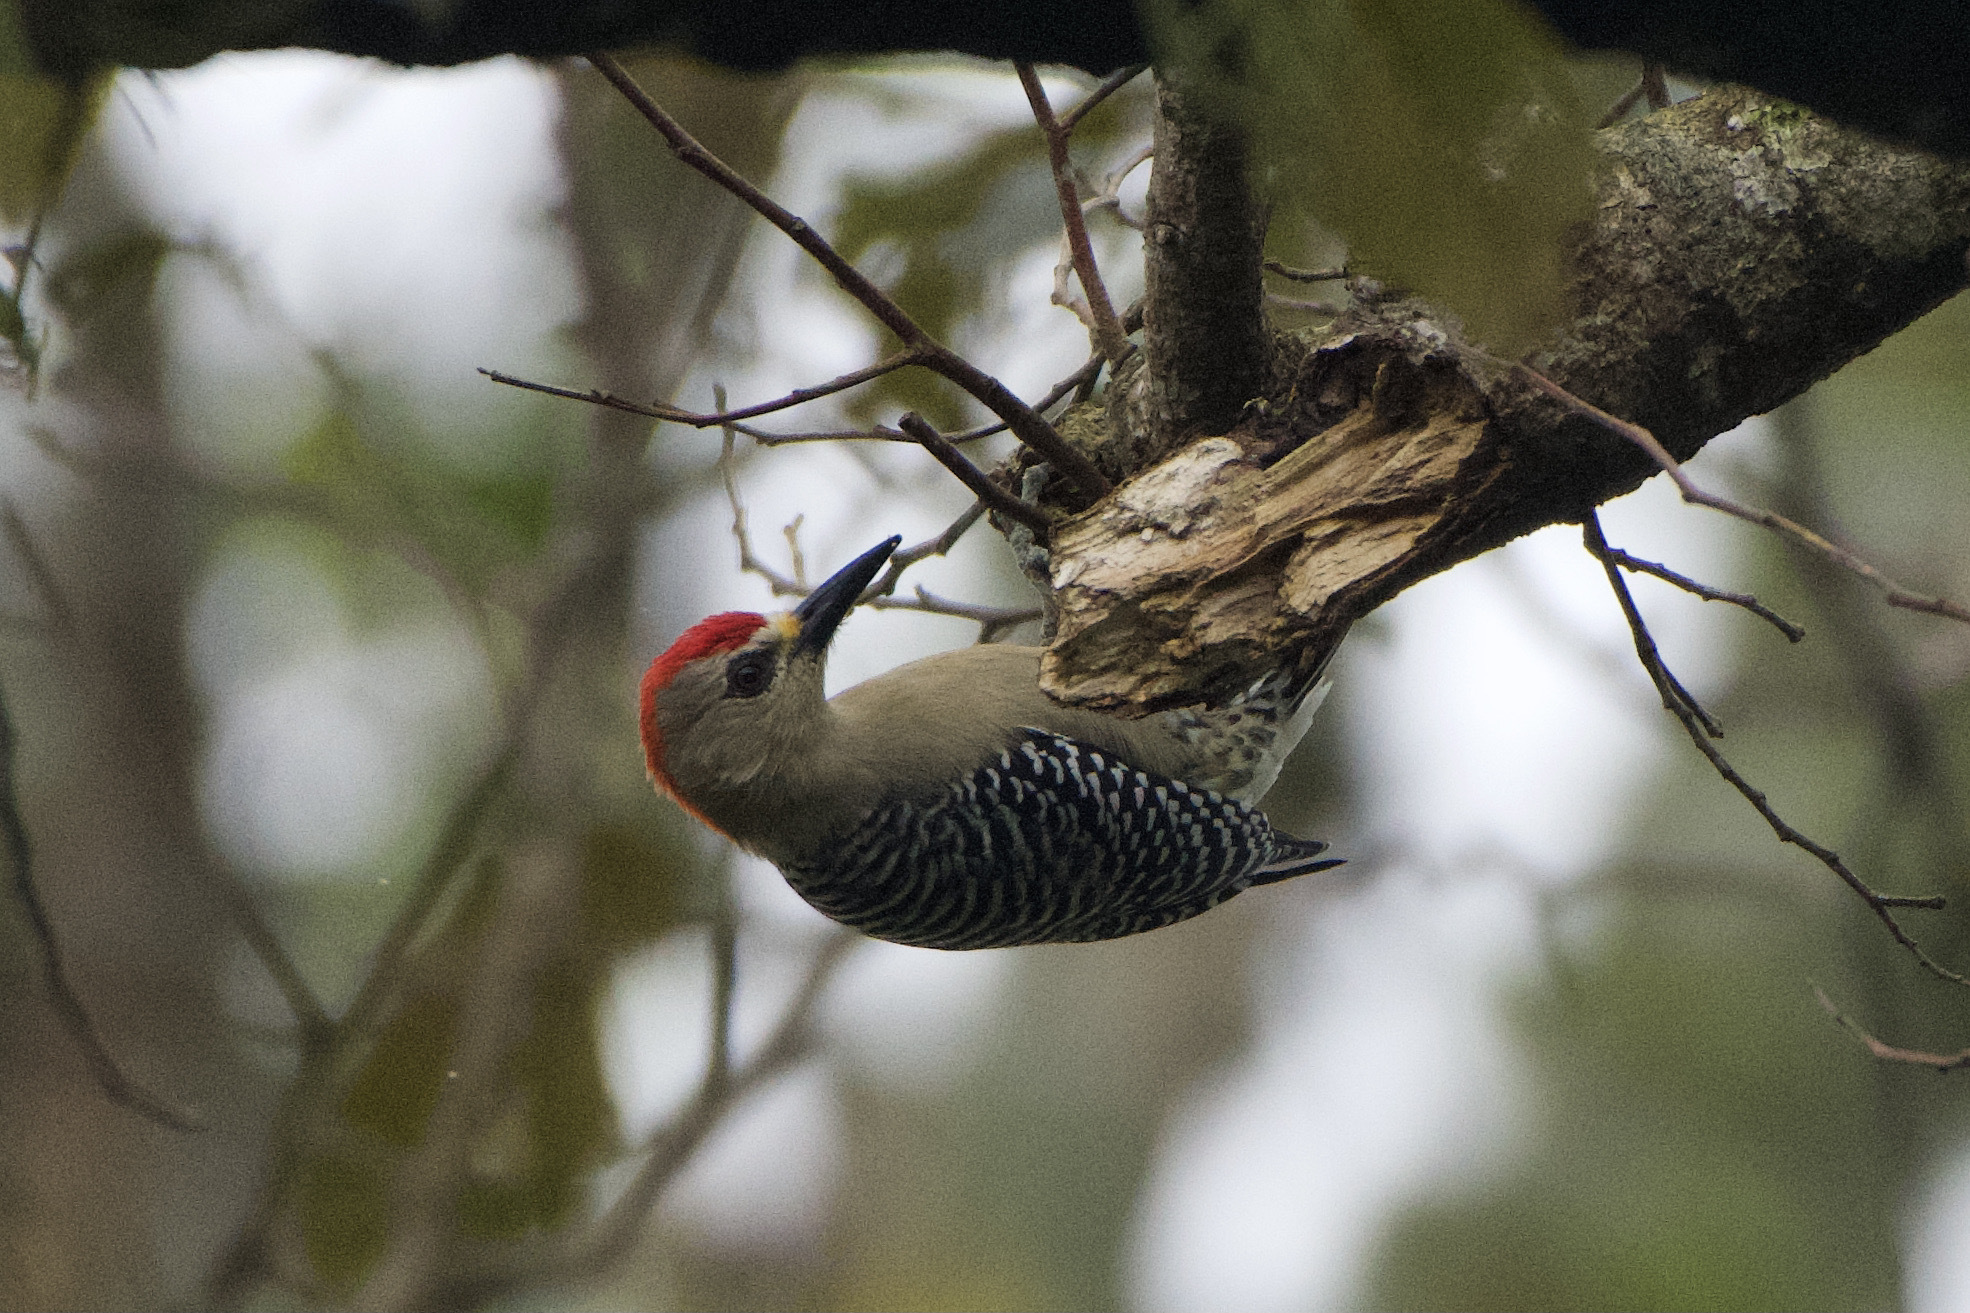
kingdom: Animalia
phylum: Chordata
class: Aves
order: Piciformes
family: Picidae
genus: Melanerpes
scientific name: Melanerpes rubricapillus
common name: Red-crowned woodpecker
